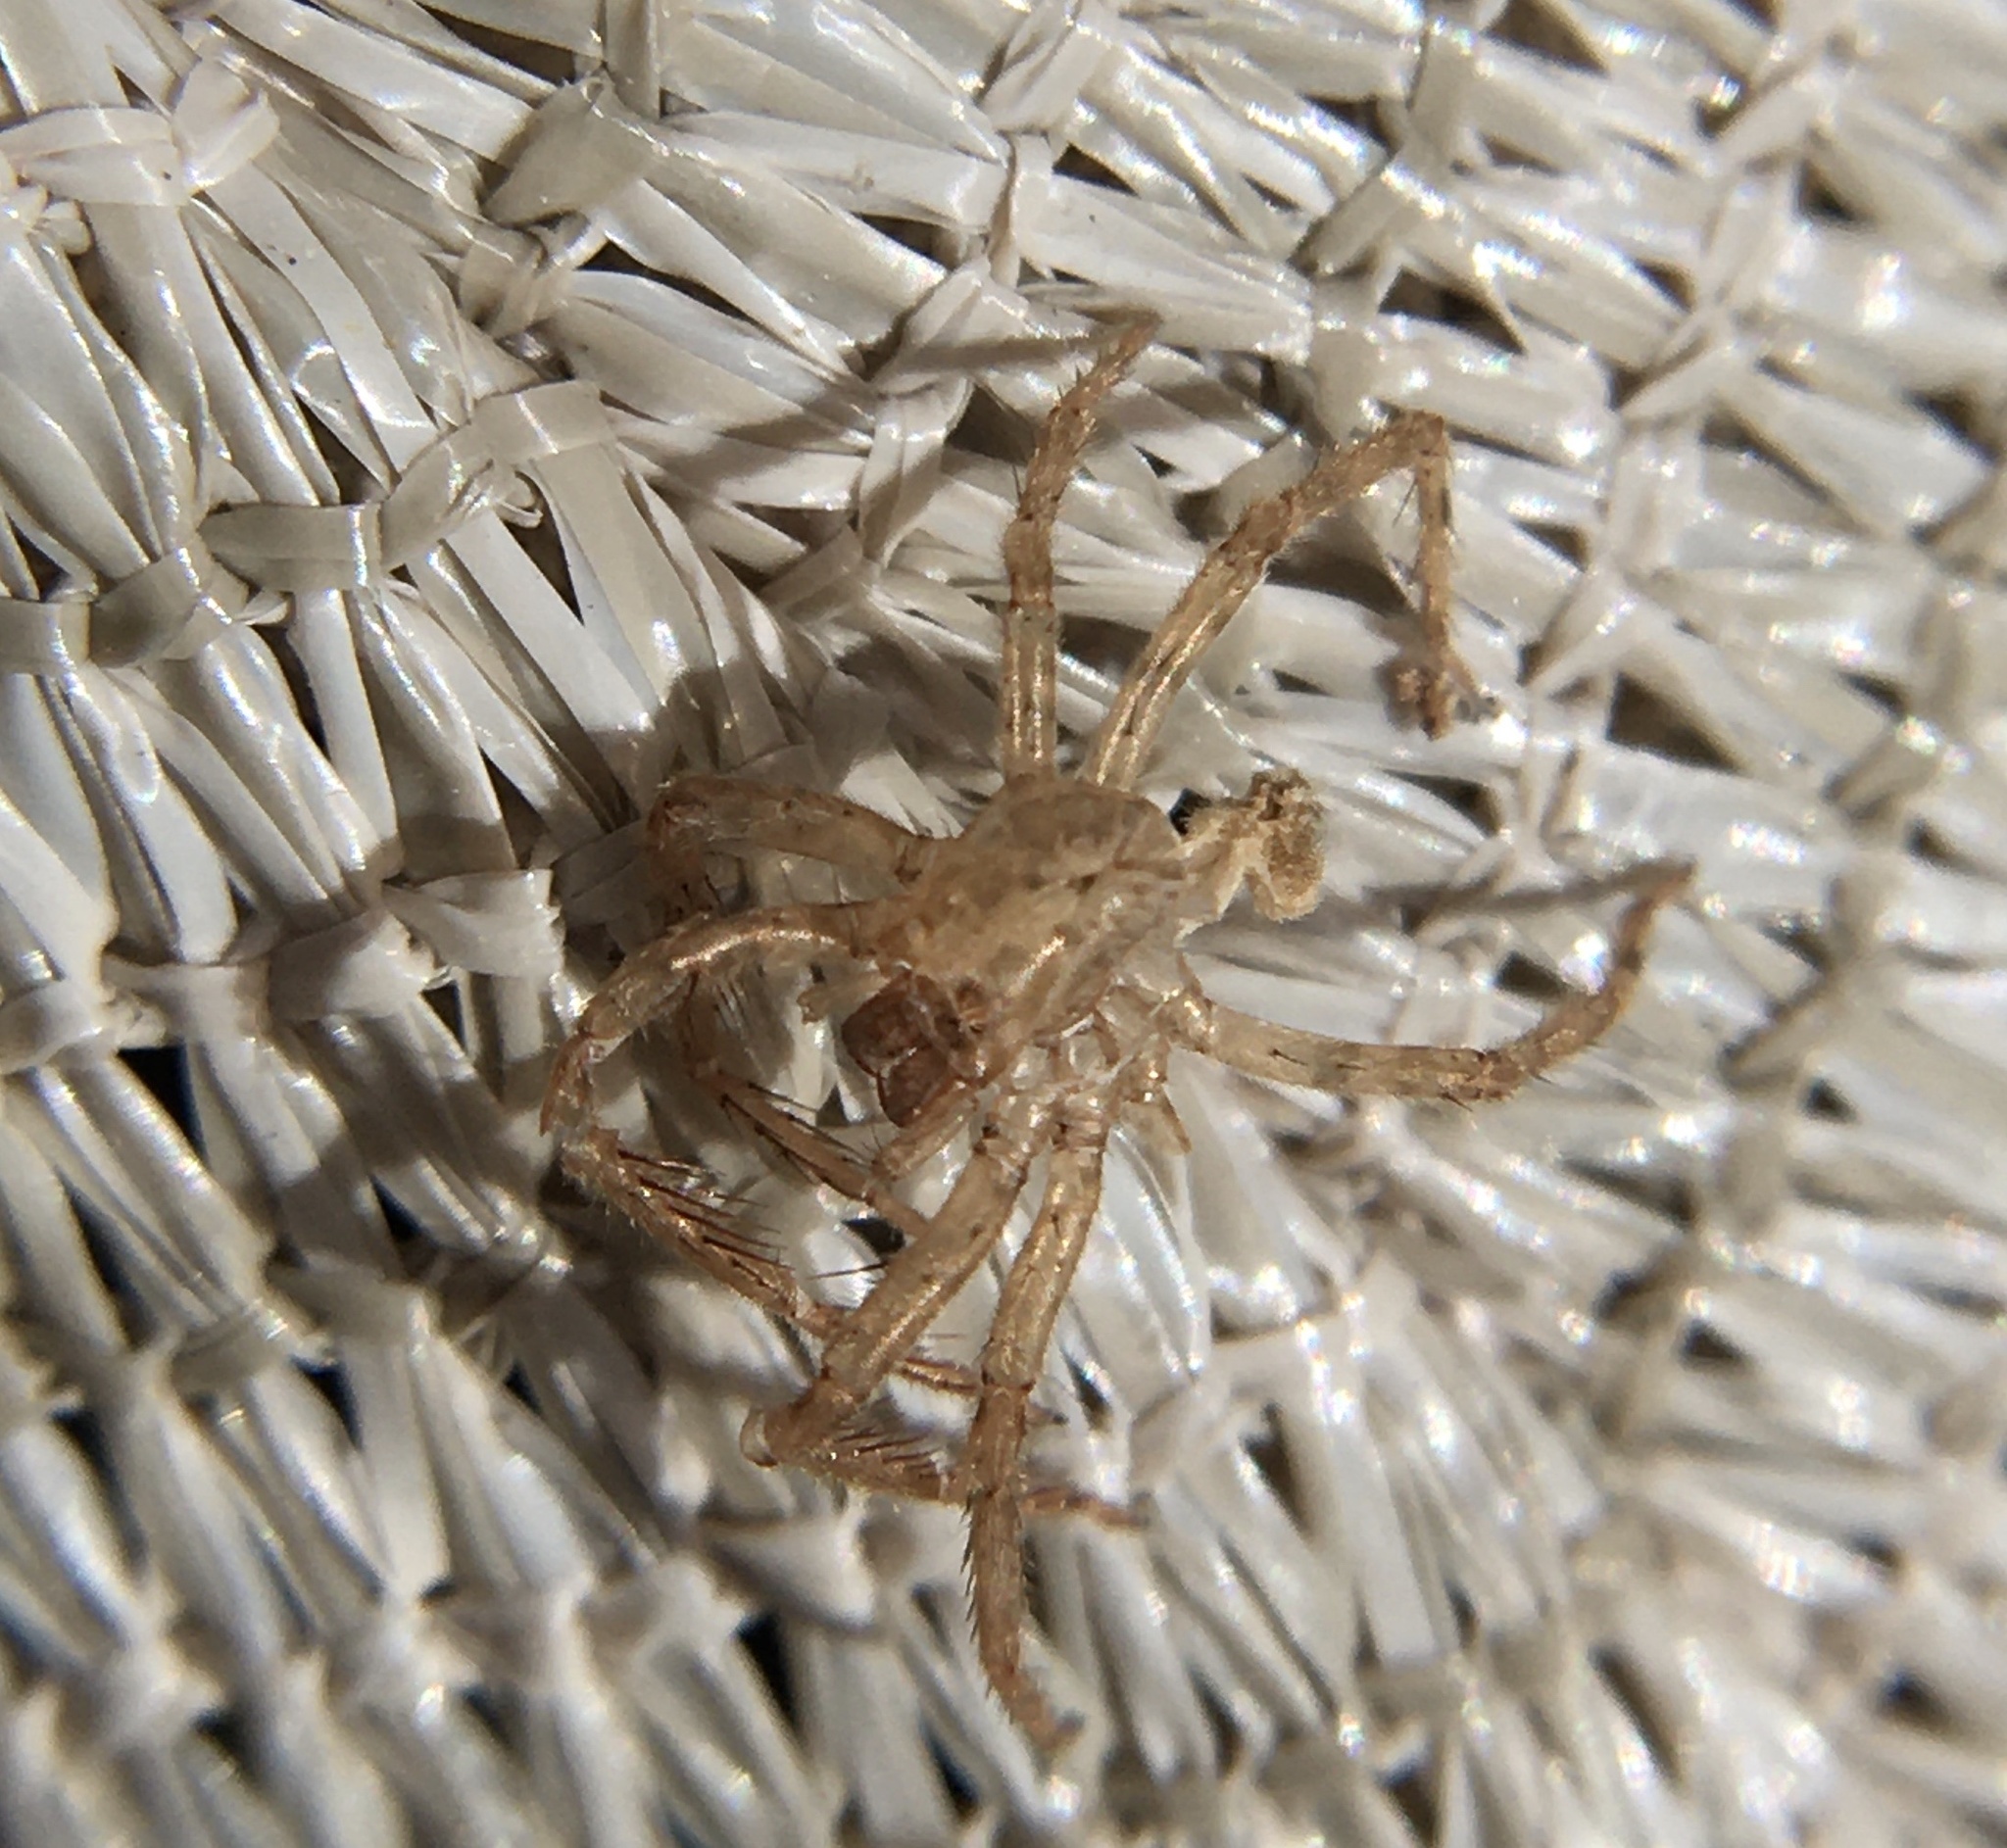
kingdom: Animalia
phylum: Arthropoda
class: Arachnida
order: Araneae
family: Zoropsidae
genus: Zoropsis
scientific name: Zoropsis spinimana
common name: Zoropsid spider
